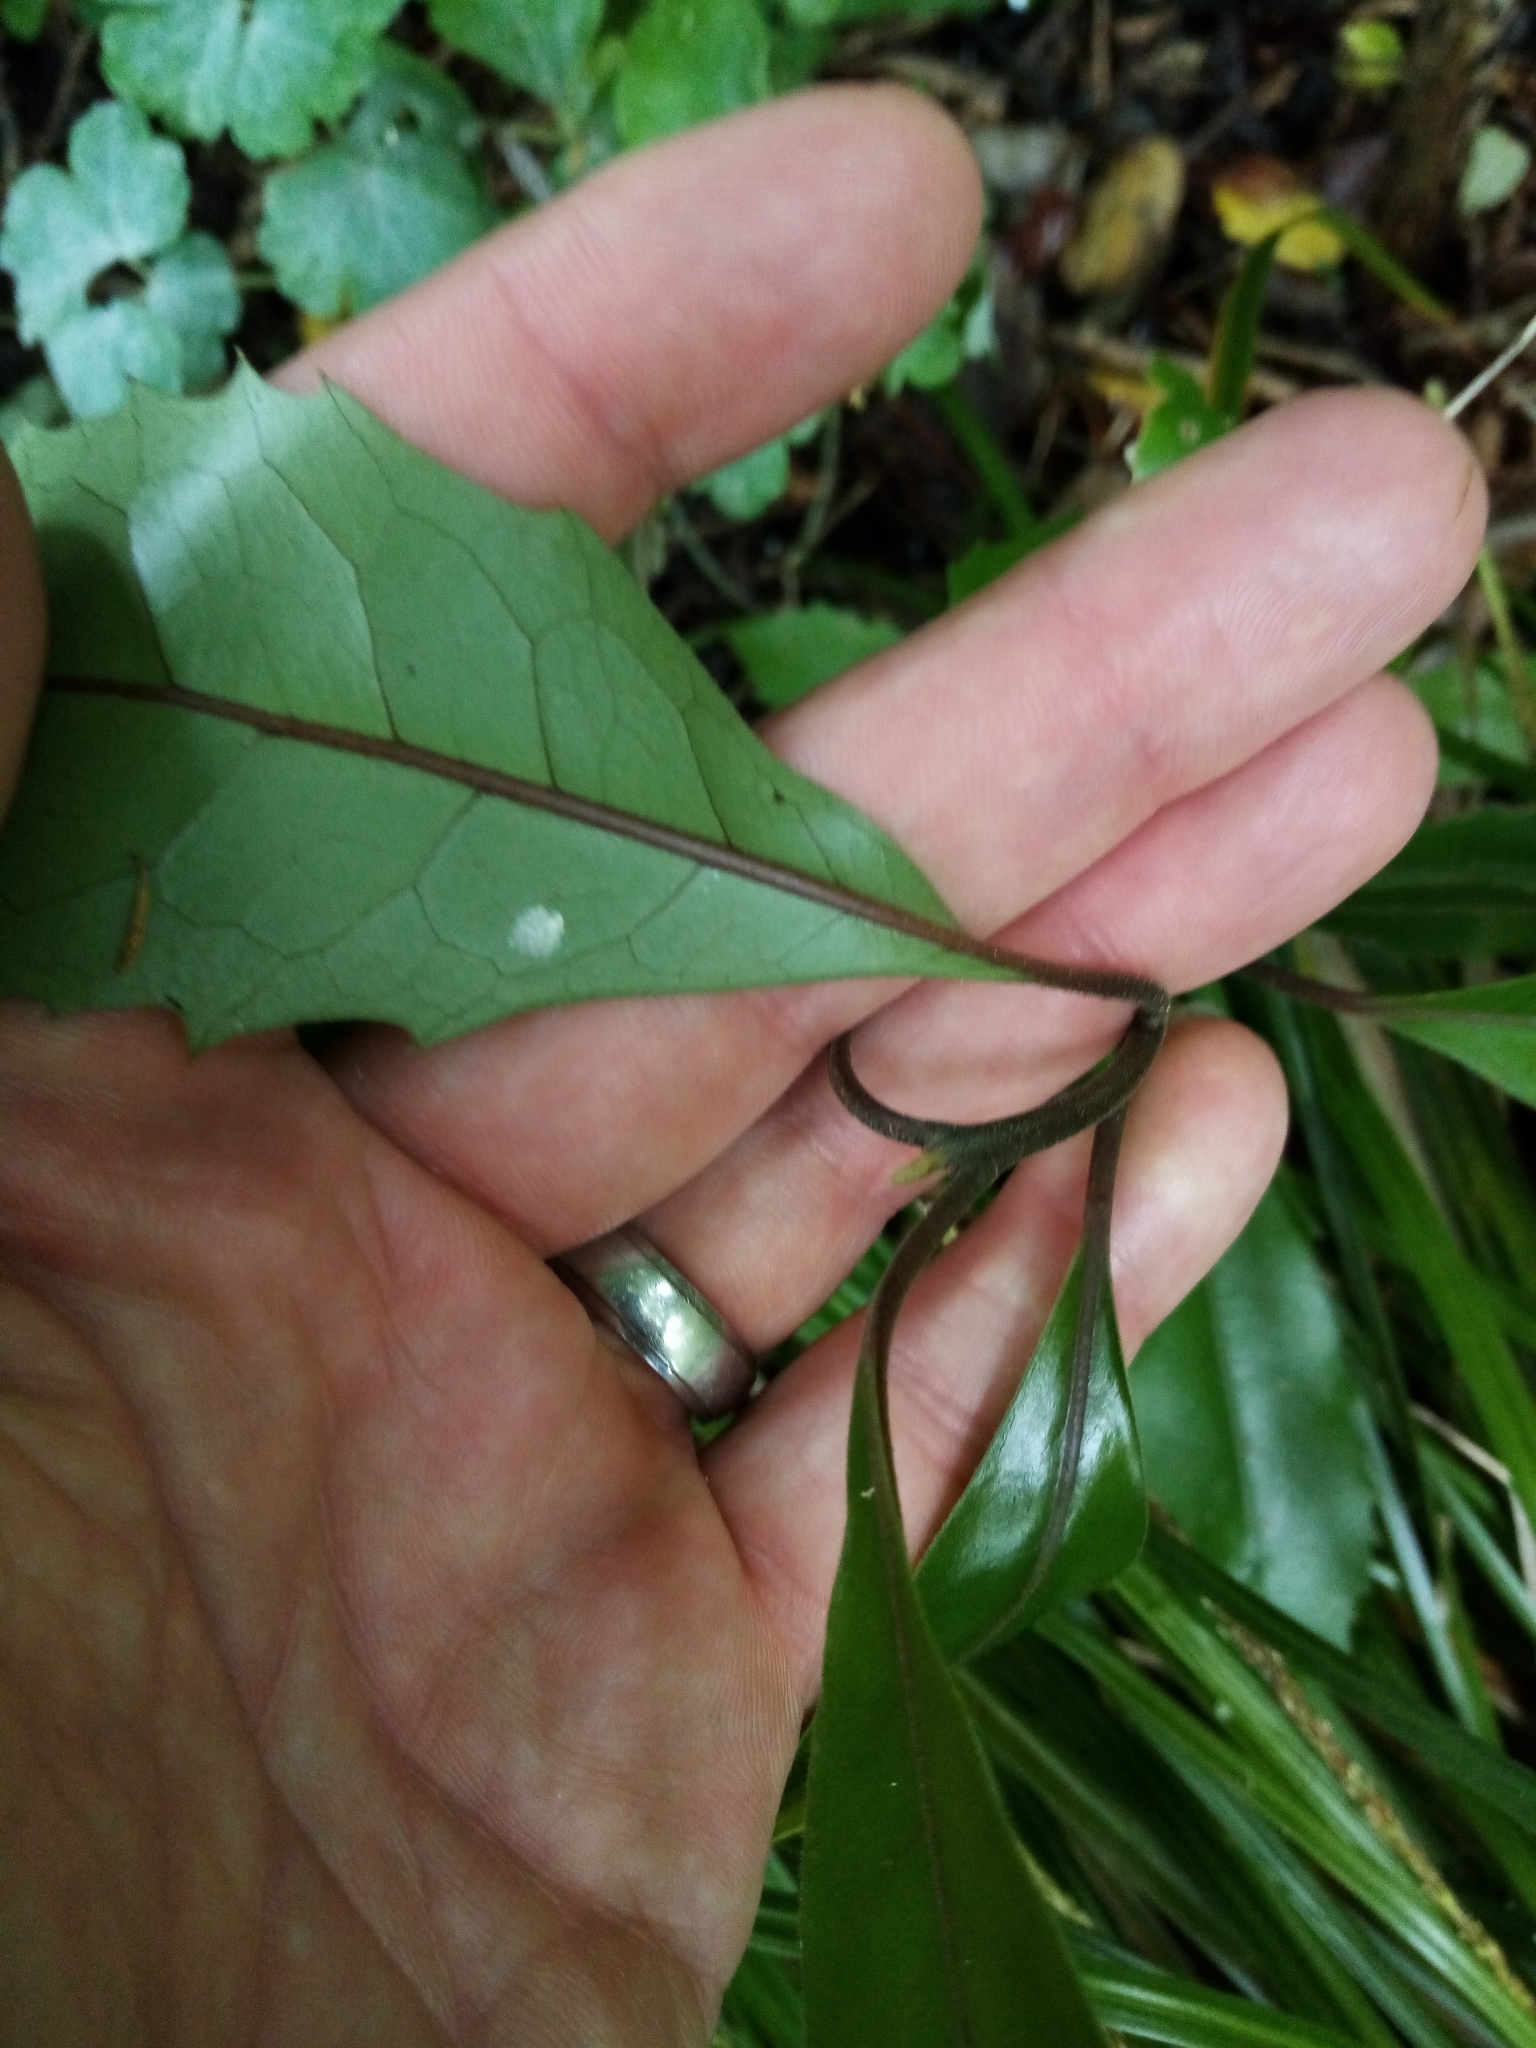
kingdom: Plantae
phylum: Tracheophyta
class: Magnoliopsida
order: Laurales
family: Monimiaceae
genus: Hedycarya
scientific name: Hedycarya arborea
